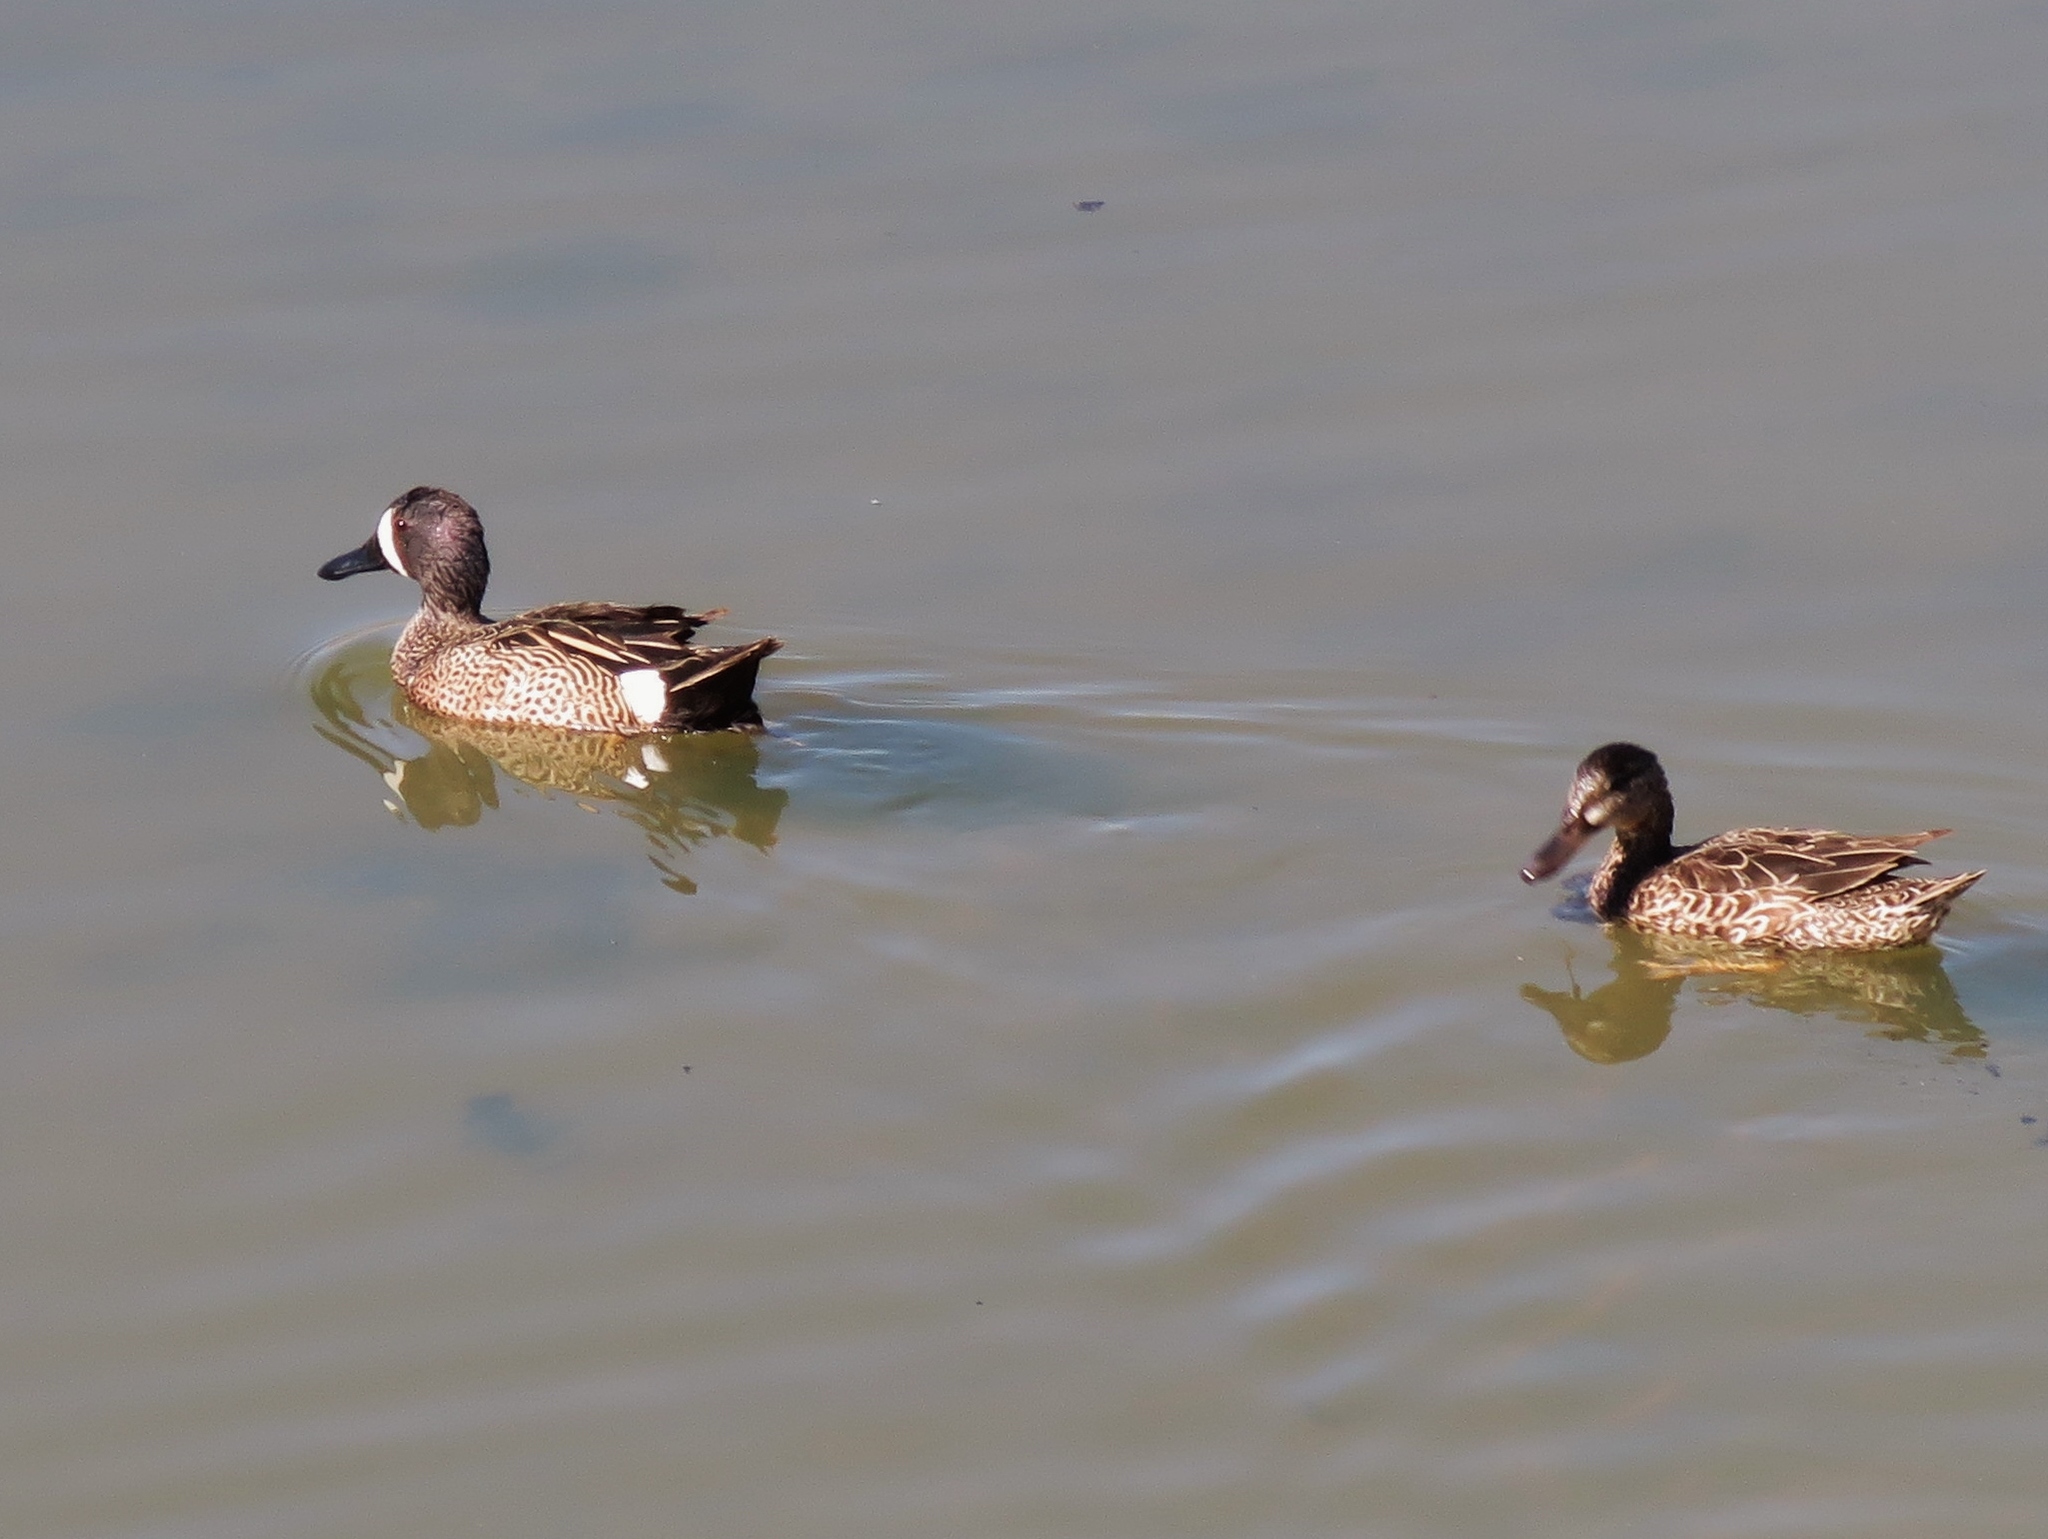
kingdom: Animalia
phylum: Chordata
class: Aves
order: Anseriformes
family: Anatidae
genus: Spatula
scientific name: Spatula discors
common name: Blue-winged teal
